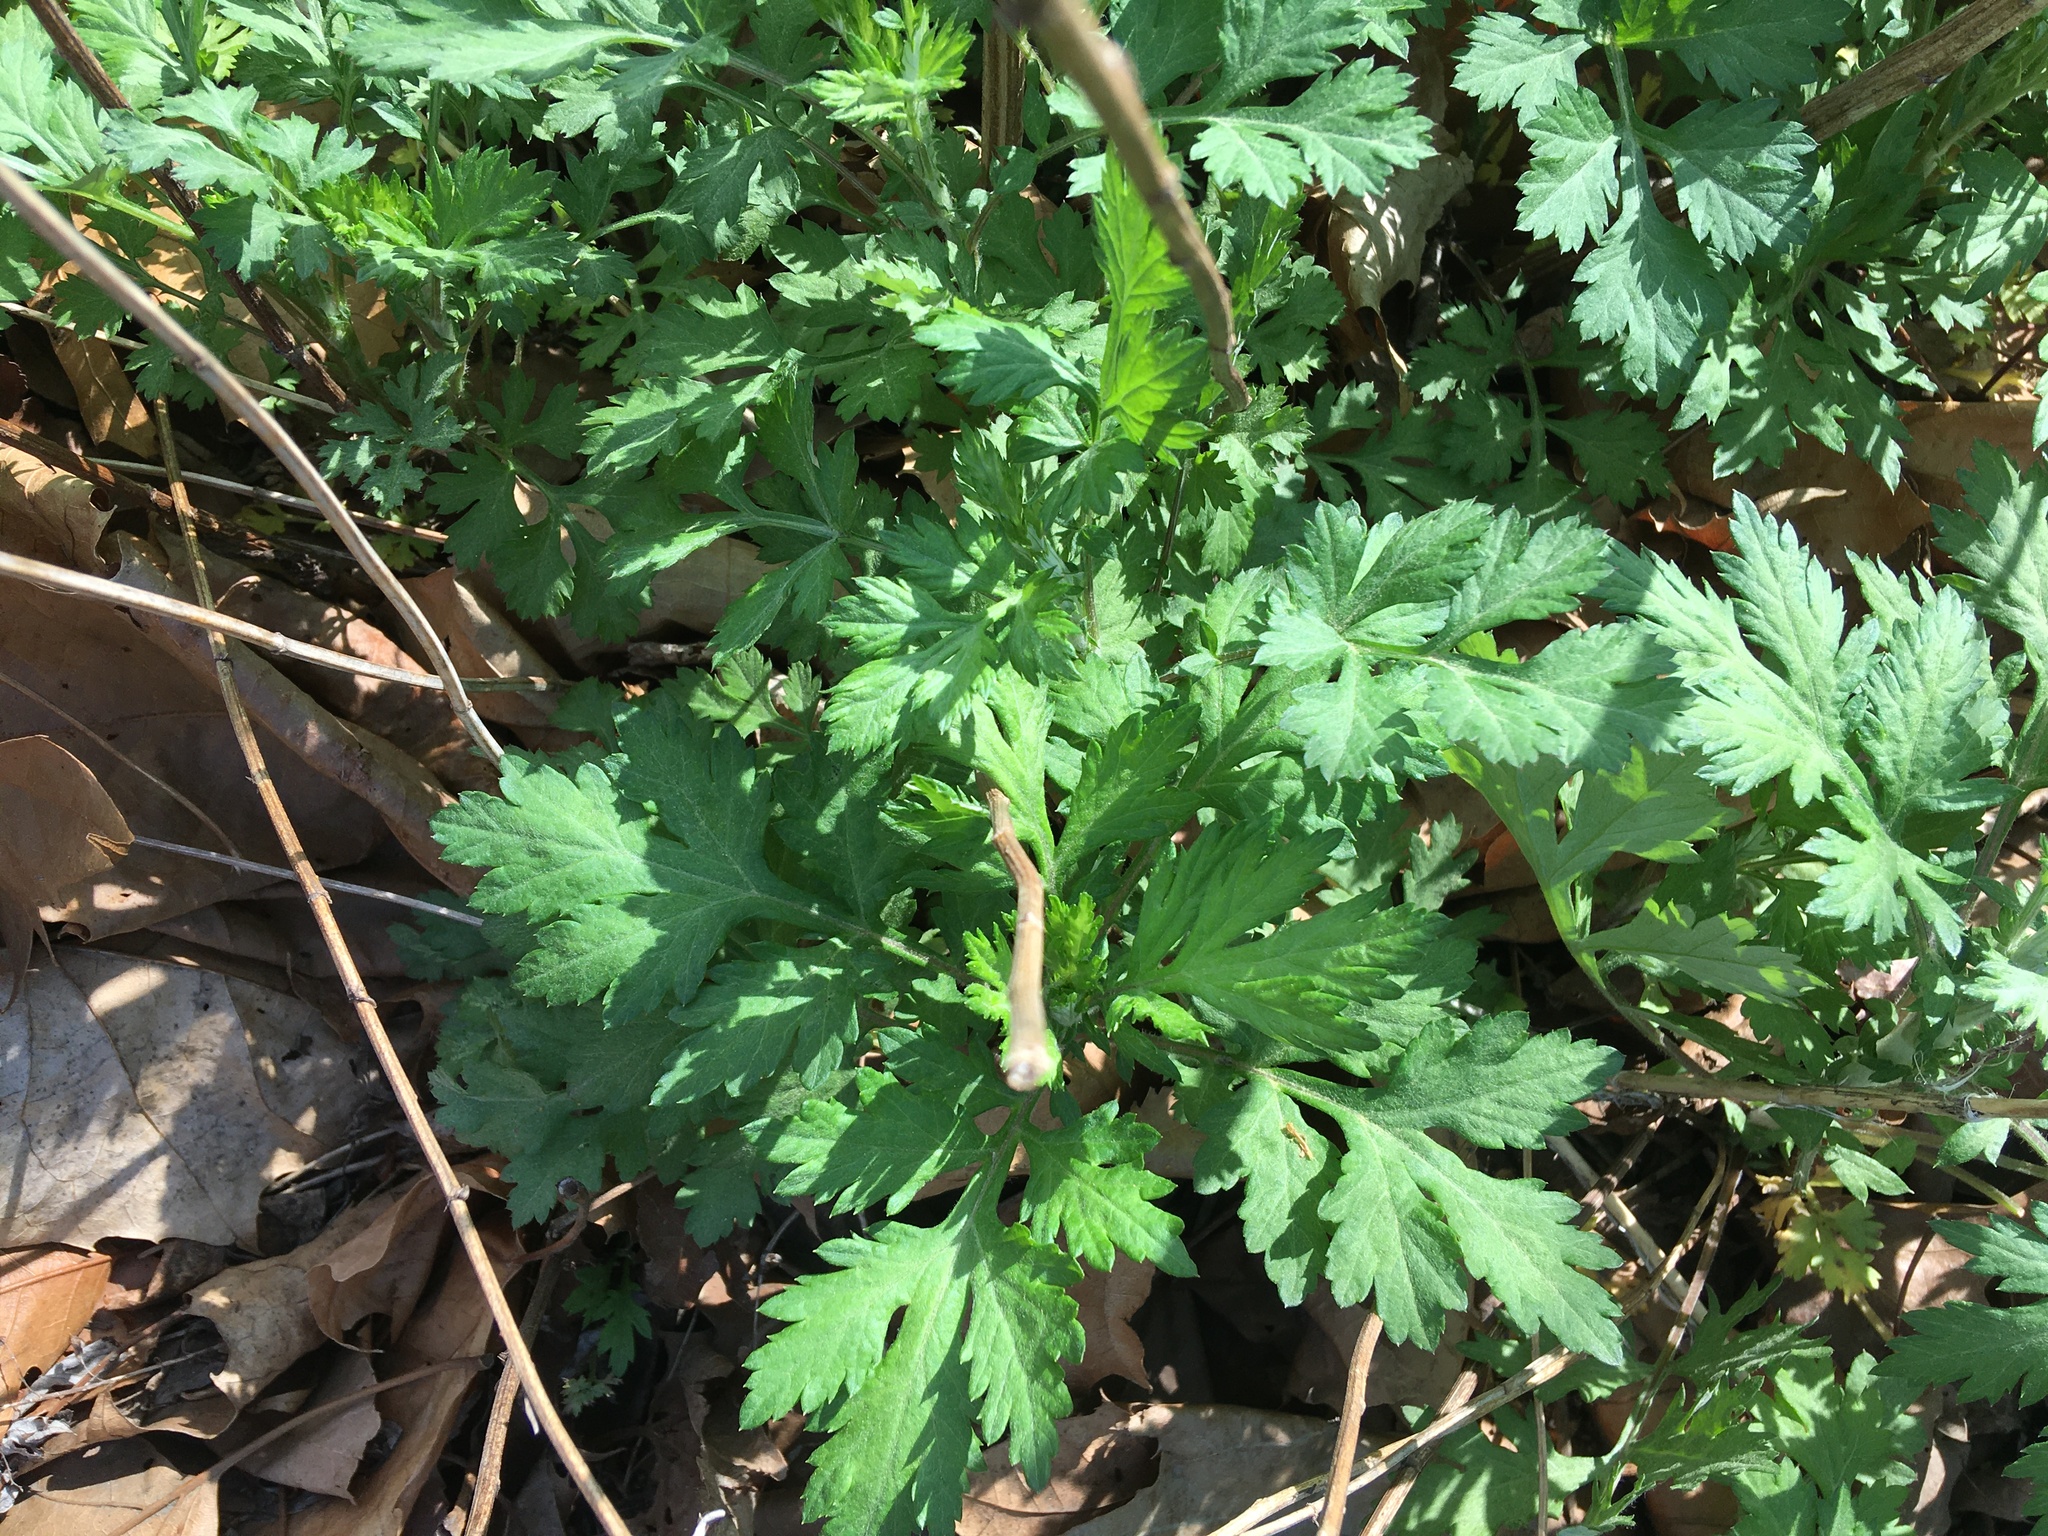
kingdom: Plantae
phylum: Tracheophyta
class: Magnoliopsida
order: Asterales
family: Asteraceae
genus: Artemisia
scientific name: Artemisia vulgaris
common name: Mugwort
